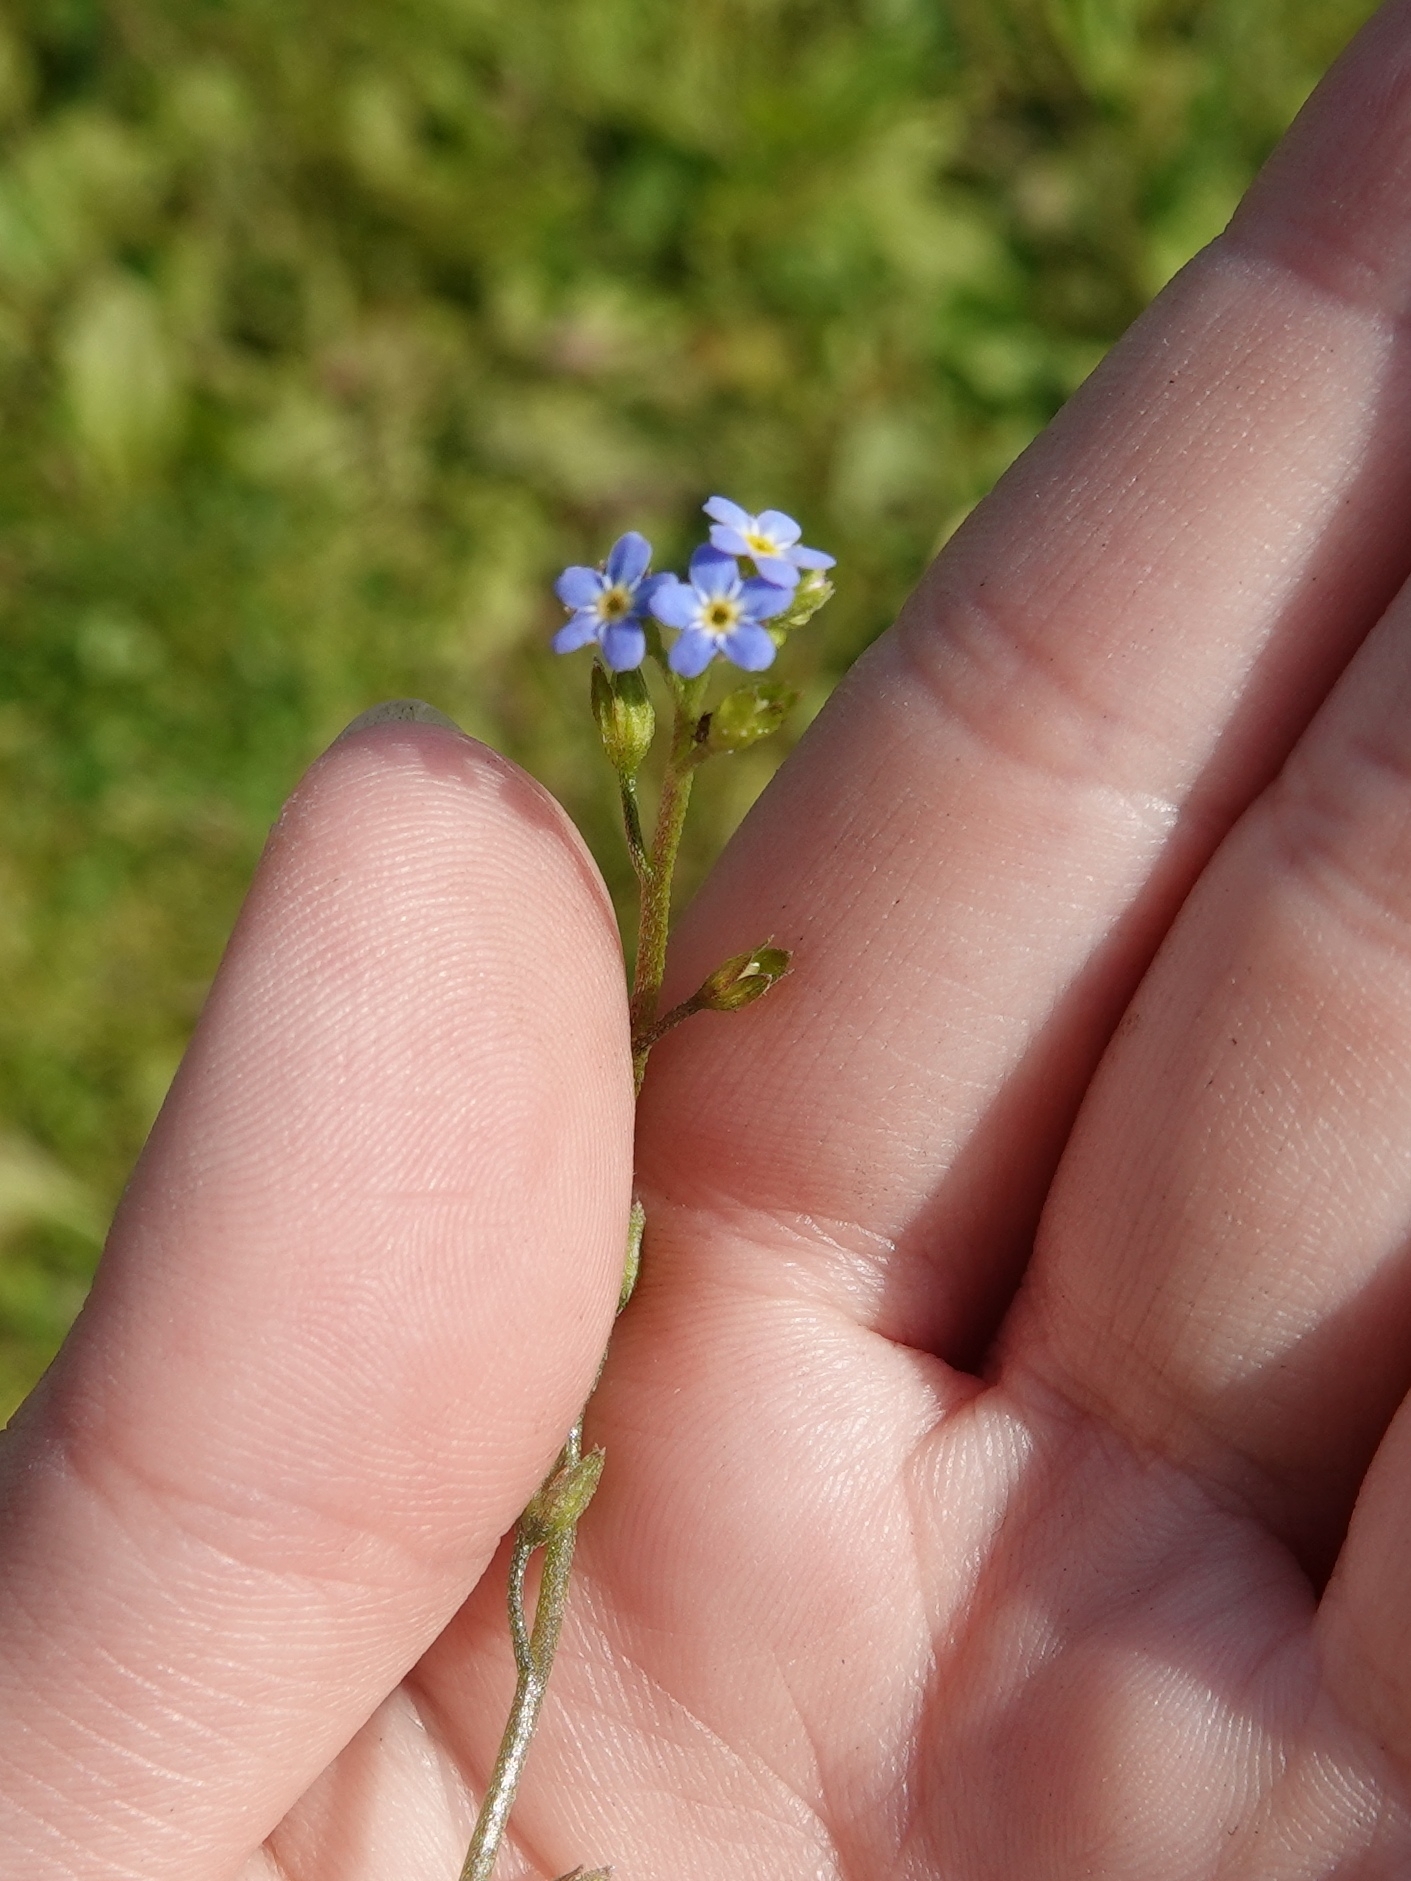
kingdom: Plantae
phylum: Tracheophyta
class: Magnoliopsida
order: Boraginales
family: Boraginaceae
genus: Myosotis
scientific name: Myosotis laxa
